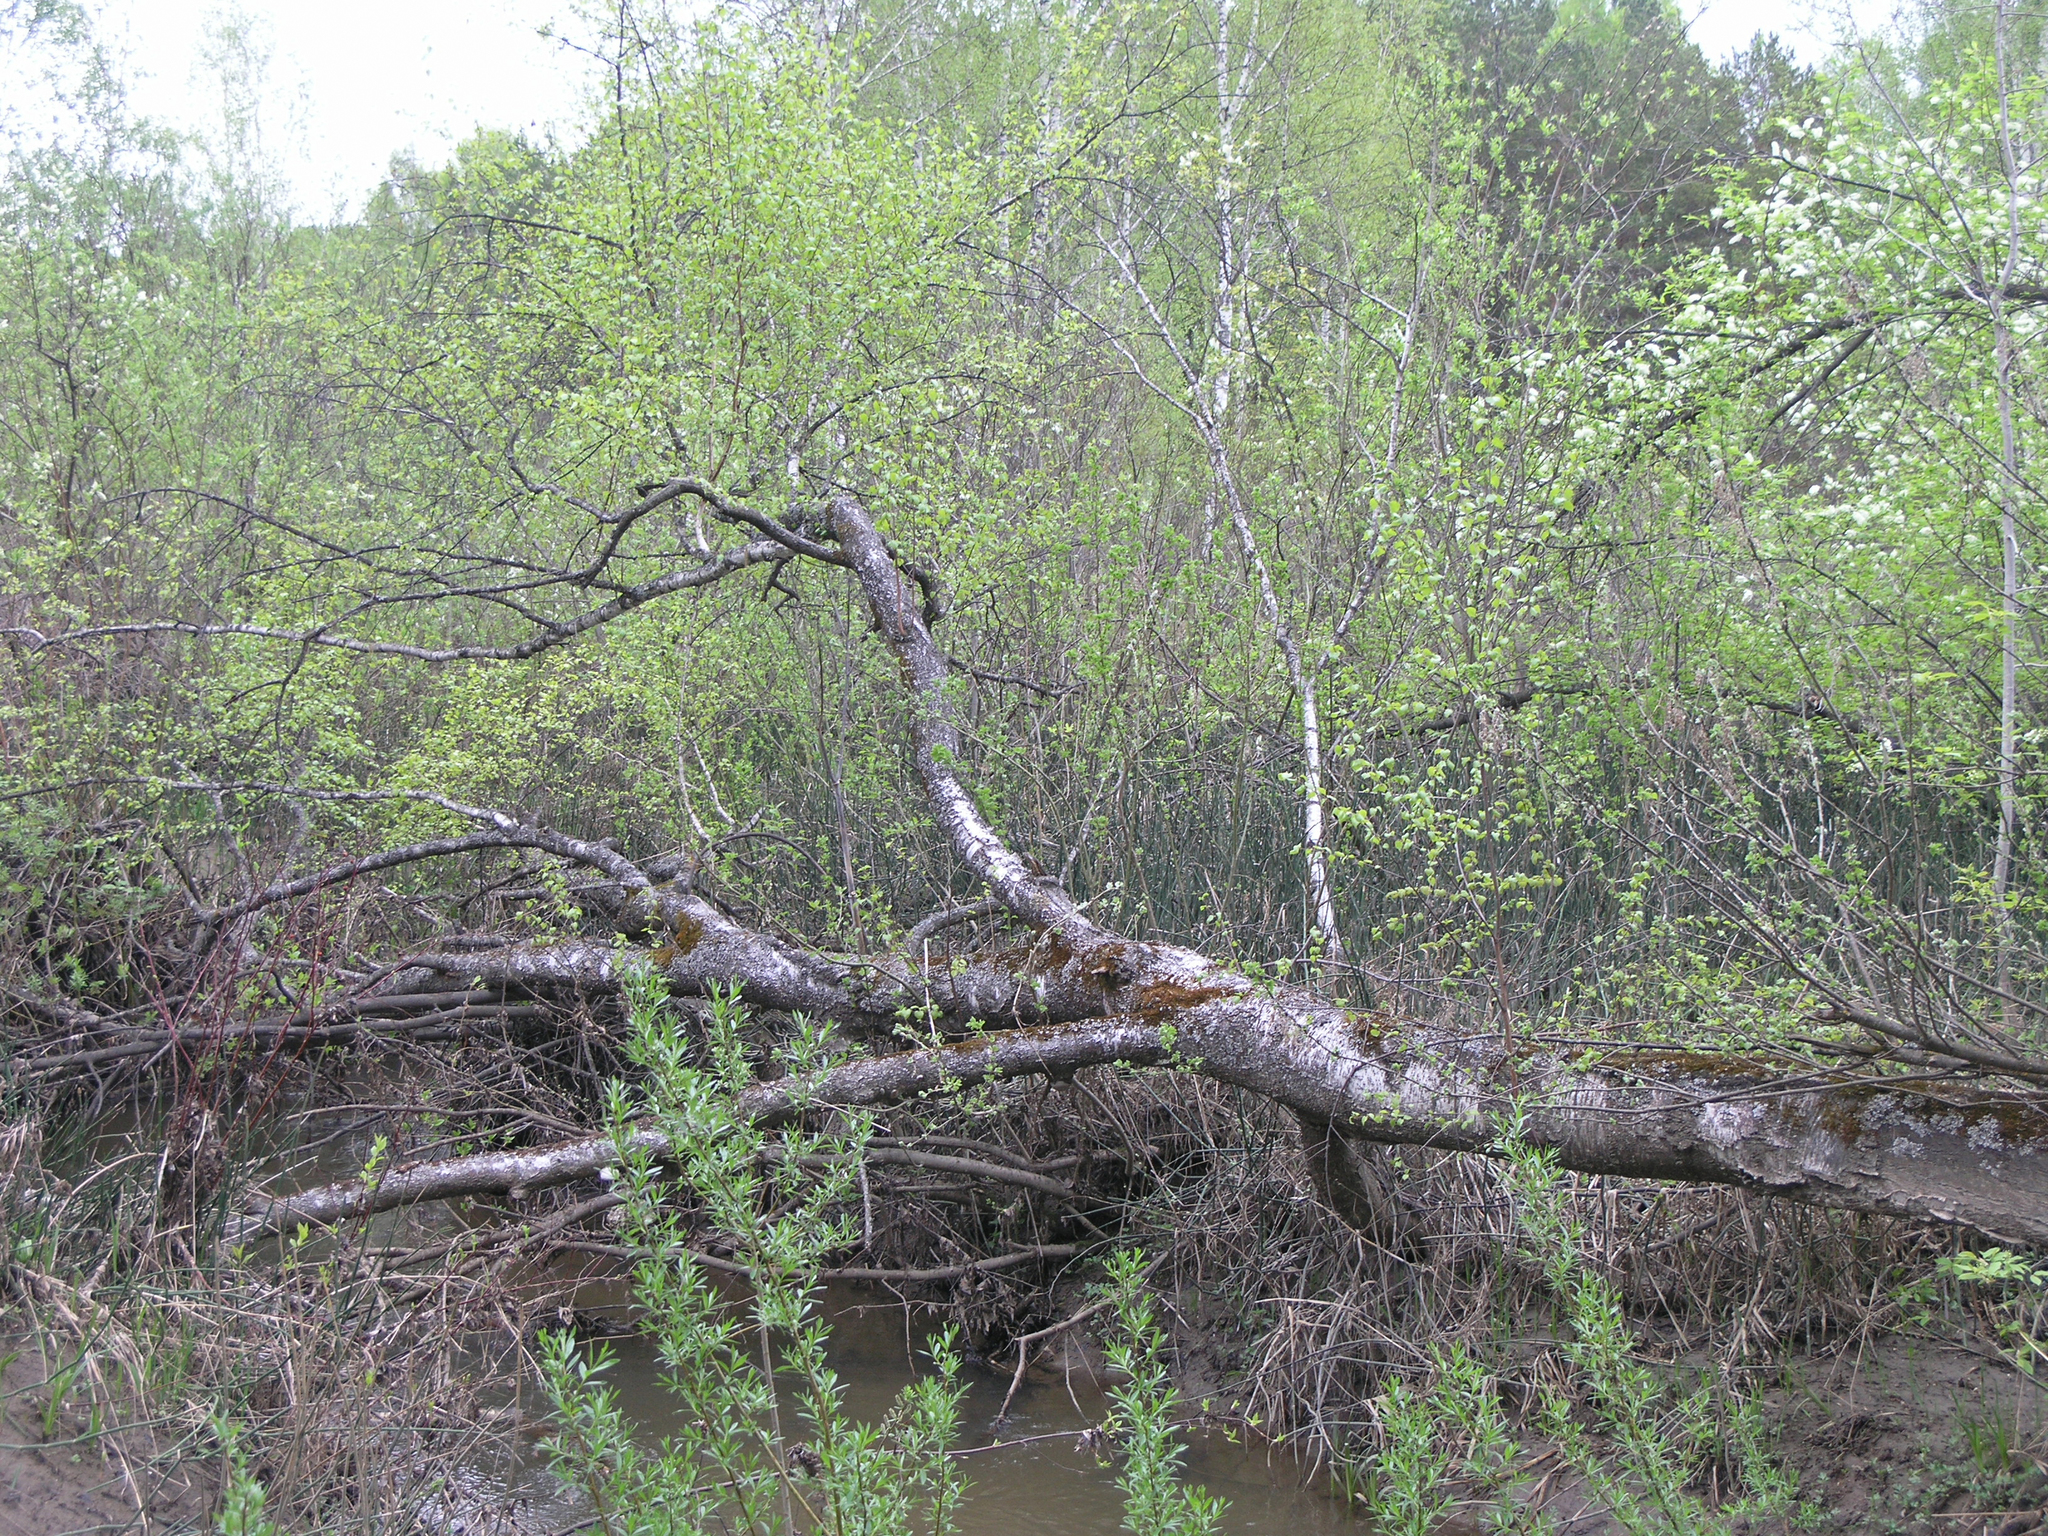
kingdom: Plantae
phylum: Tracheophyta
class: Magnoliopsida
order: Fagales
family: Betulaceae
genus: Betula
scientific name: Betula pubescens
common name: Downy birch
